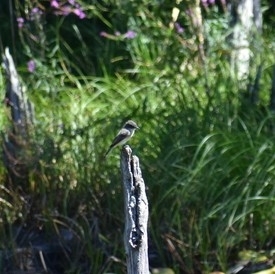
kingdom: Animalia
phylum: Chordata
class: Aves
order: Passeriformes
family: Tyrannidae
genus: Sayornis
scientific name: Sayornis phoebe
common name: Eastern phoebe
